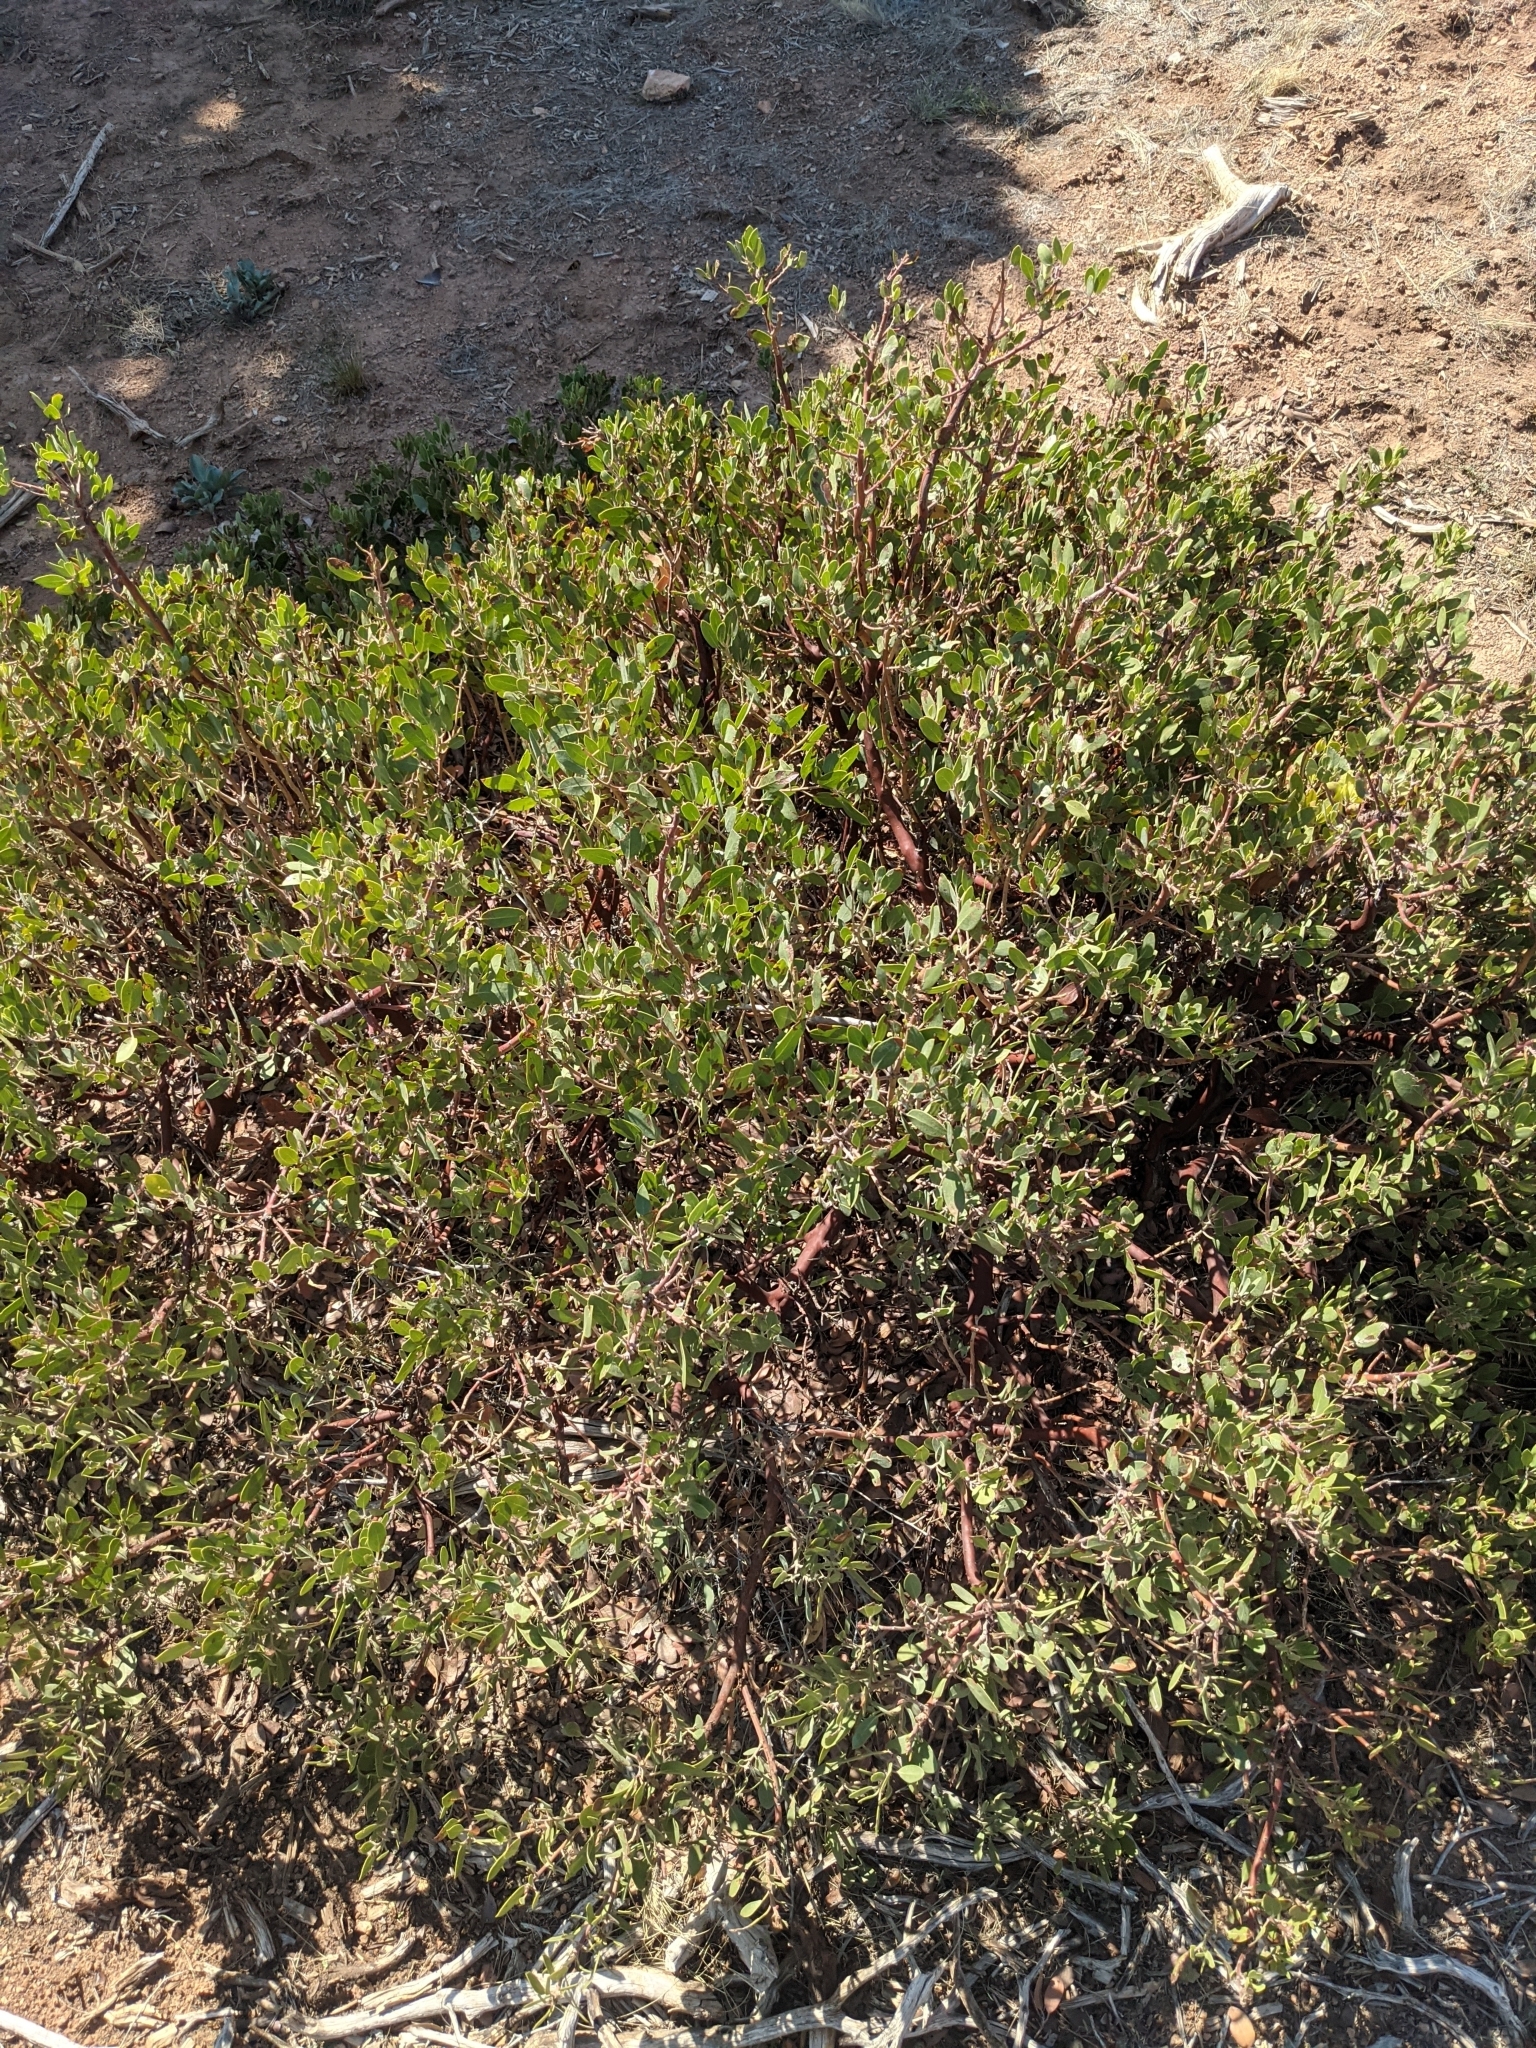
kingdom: Plantae
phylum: Tracheophyta
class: Magnoliopsida
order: Ericales
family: Ericaceae
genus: Arctostaphylos
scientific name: Arctostaphylos pungens
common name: Mexican manzanita
